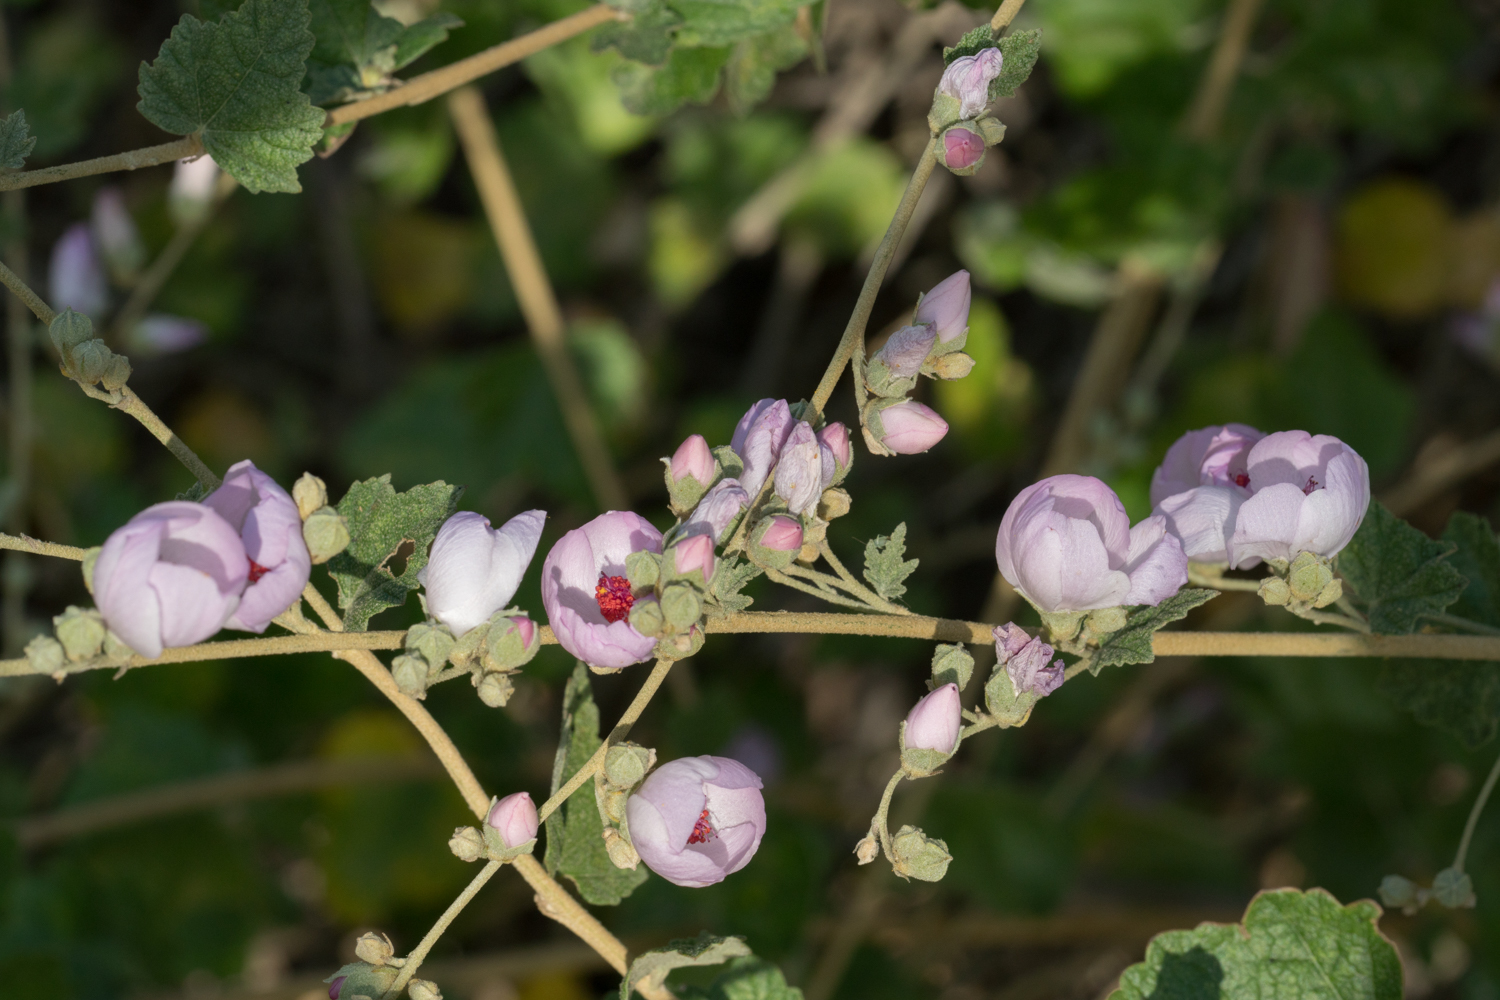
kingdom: Plantae
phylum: Tracheophyta
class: Magnoliopsida
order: Malvales
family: Malvaceae
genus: Malacothamnus
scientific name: Malacothamnus fasciculatus
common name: Sant cruz island bush-mallow
